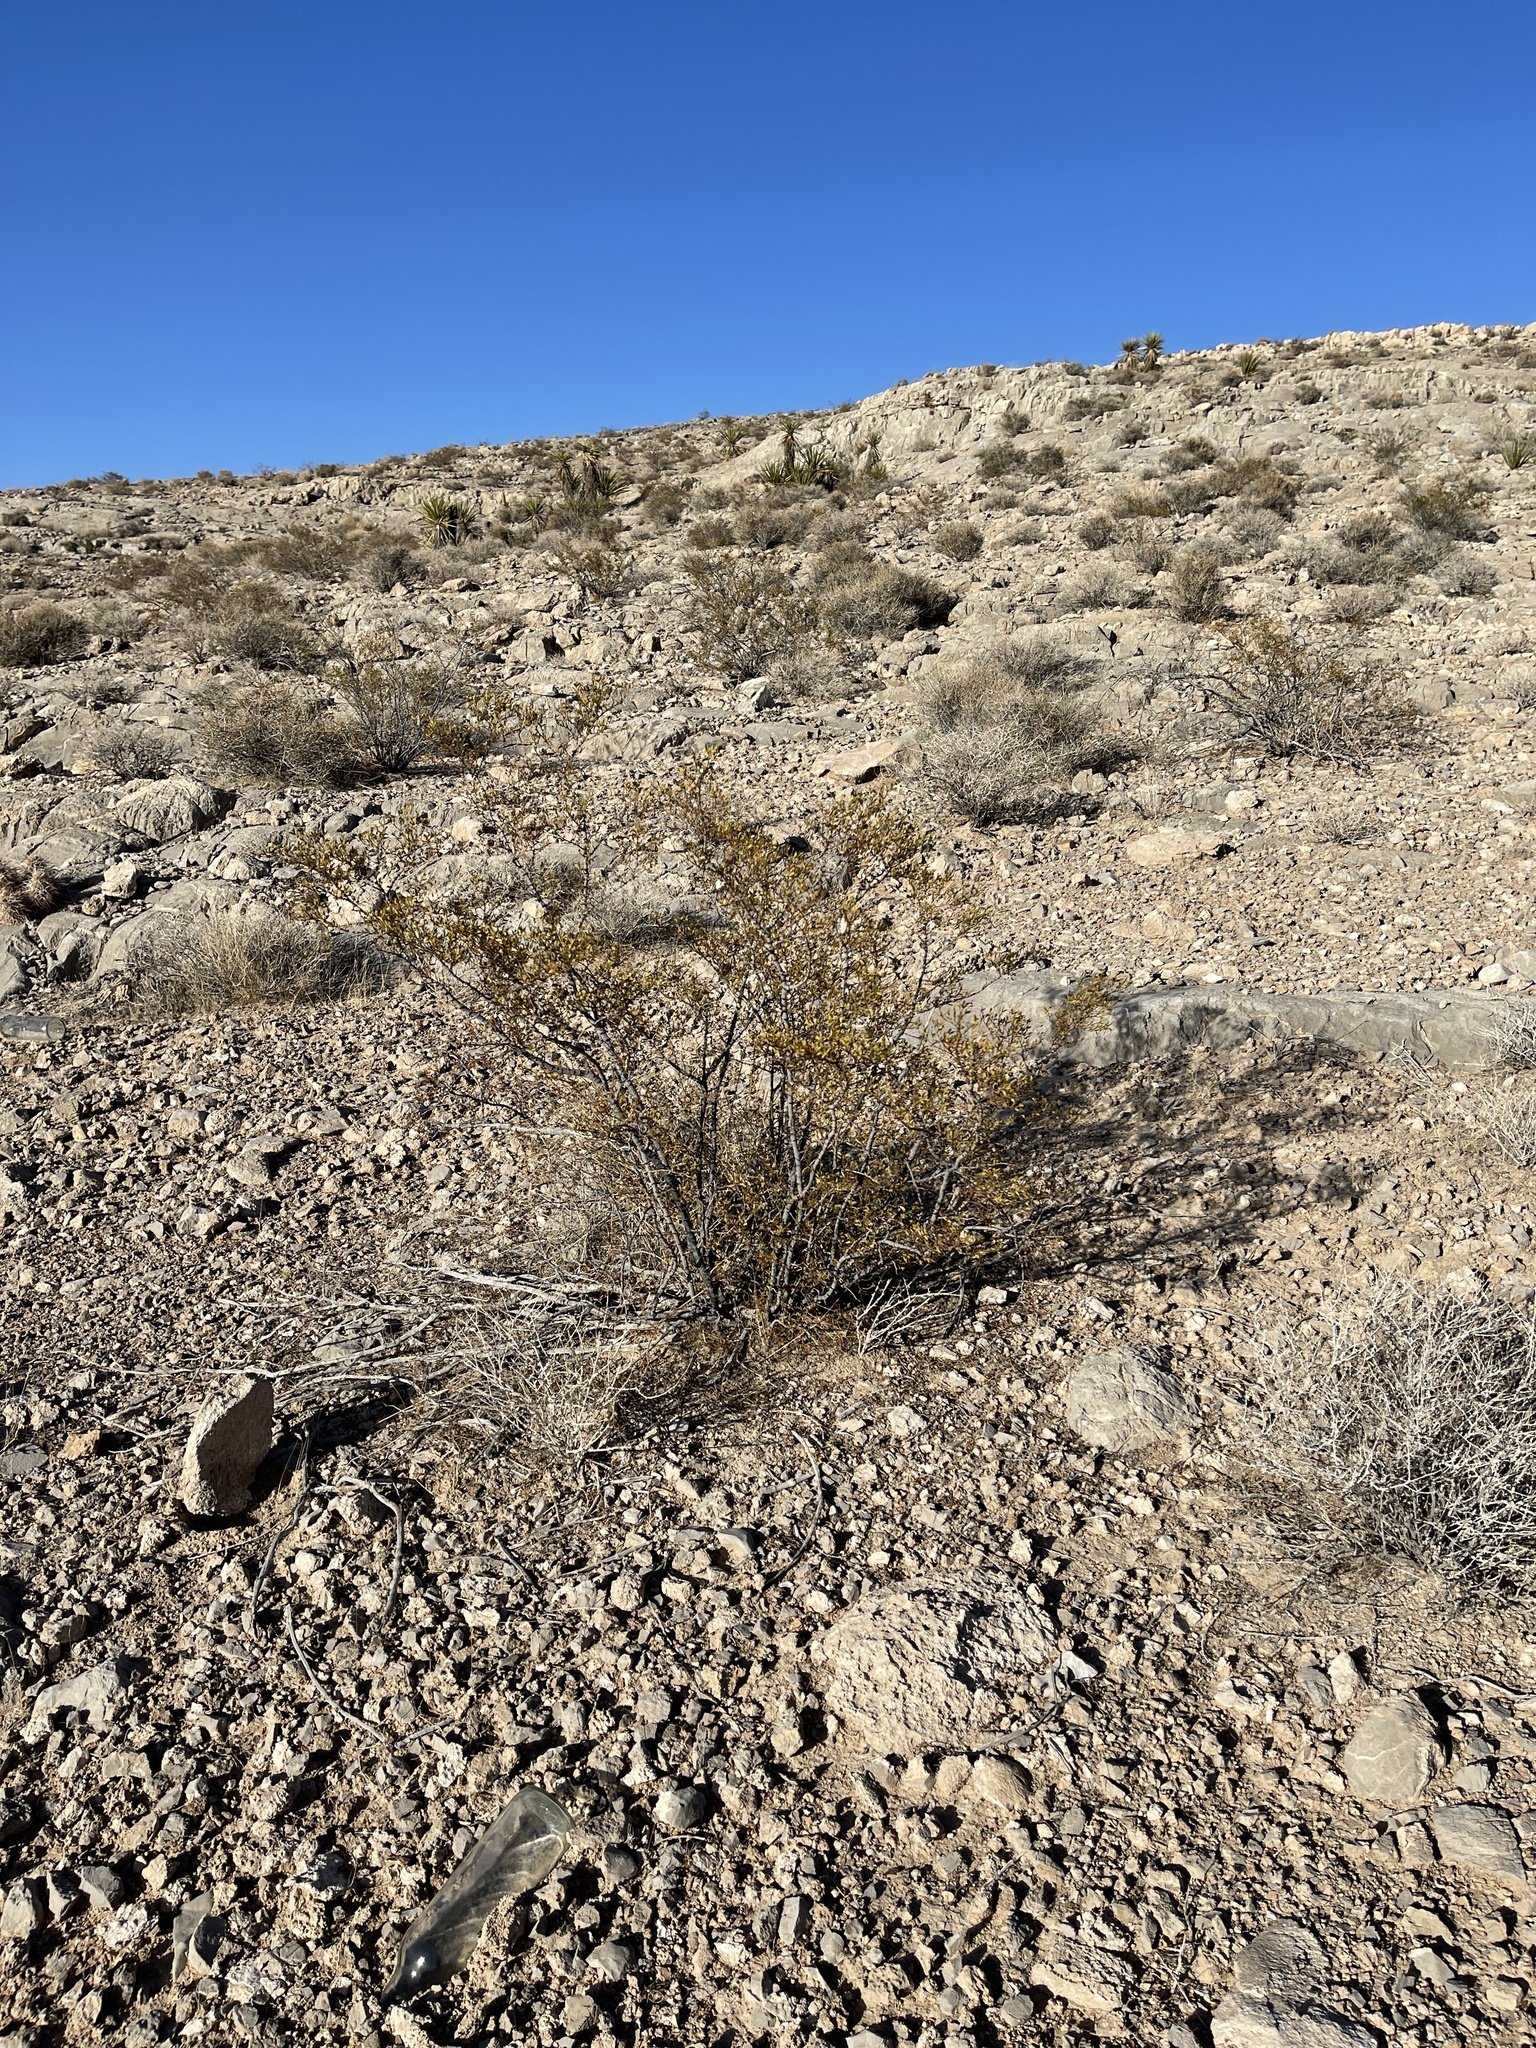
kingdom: Plantae
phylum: Tracheophyta
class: Magnoliopsida
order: Zygophyllales
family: Zygophyllaceae
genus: Larrea
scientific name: Larrea tridentata
